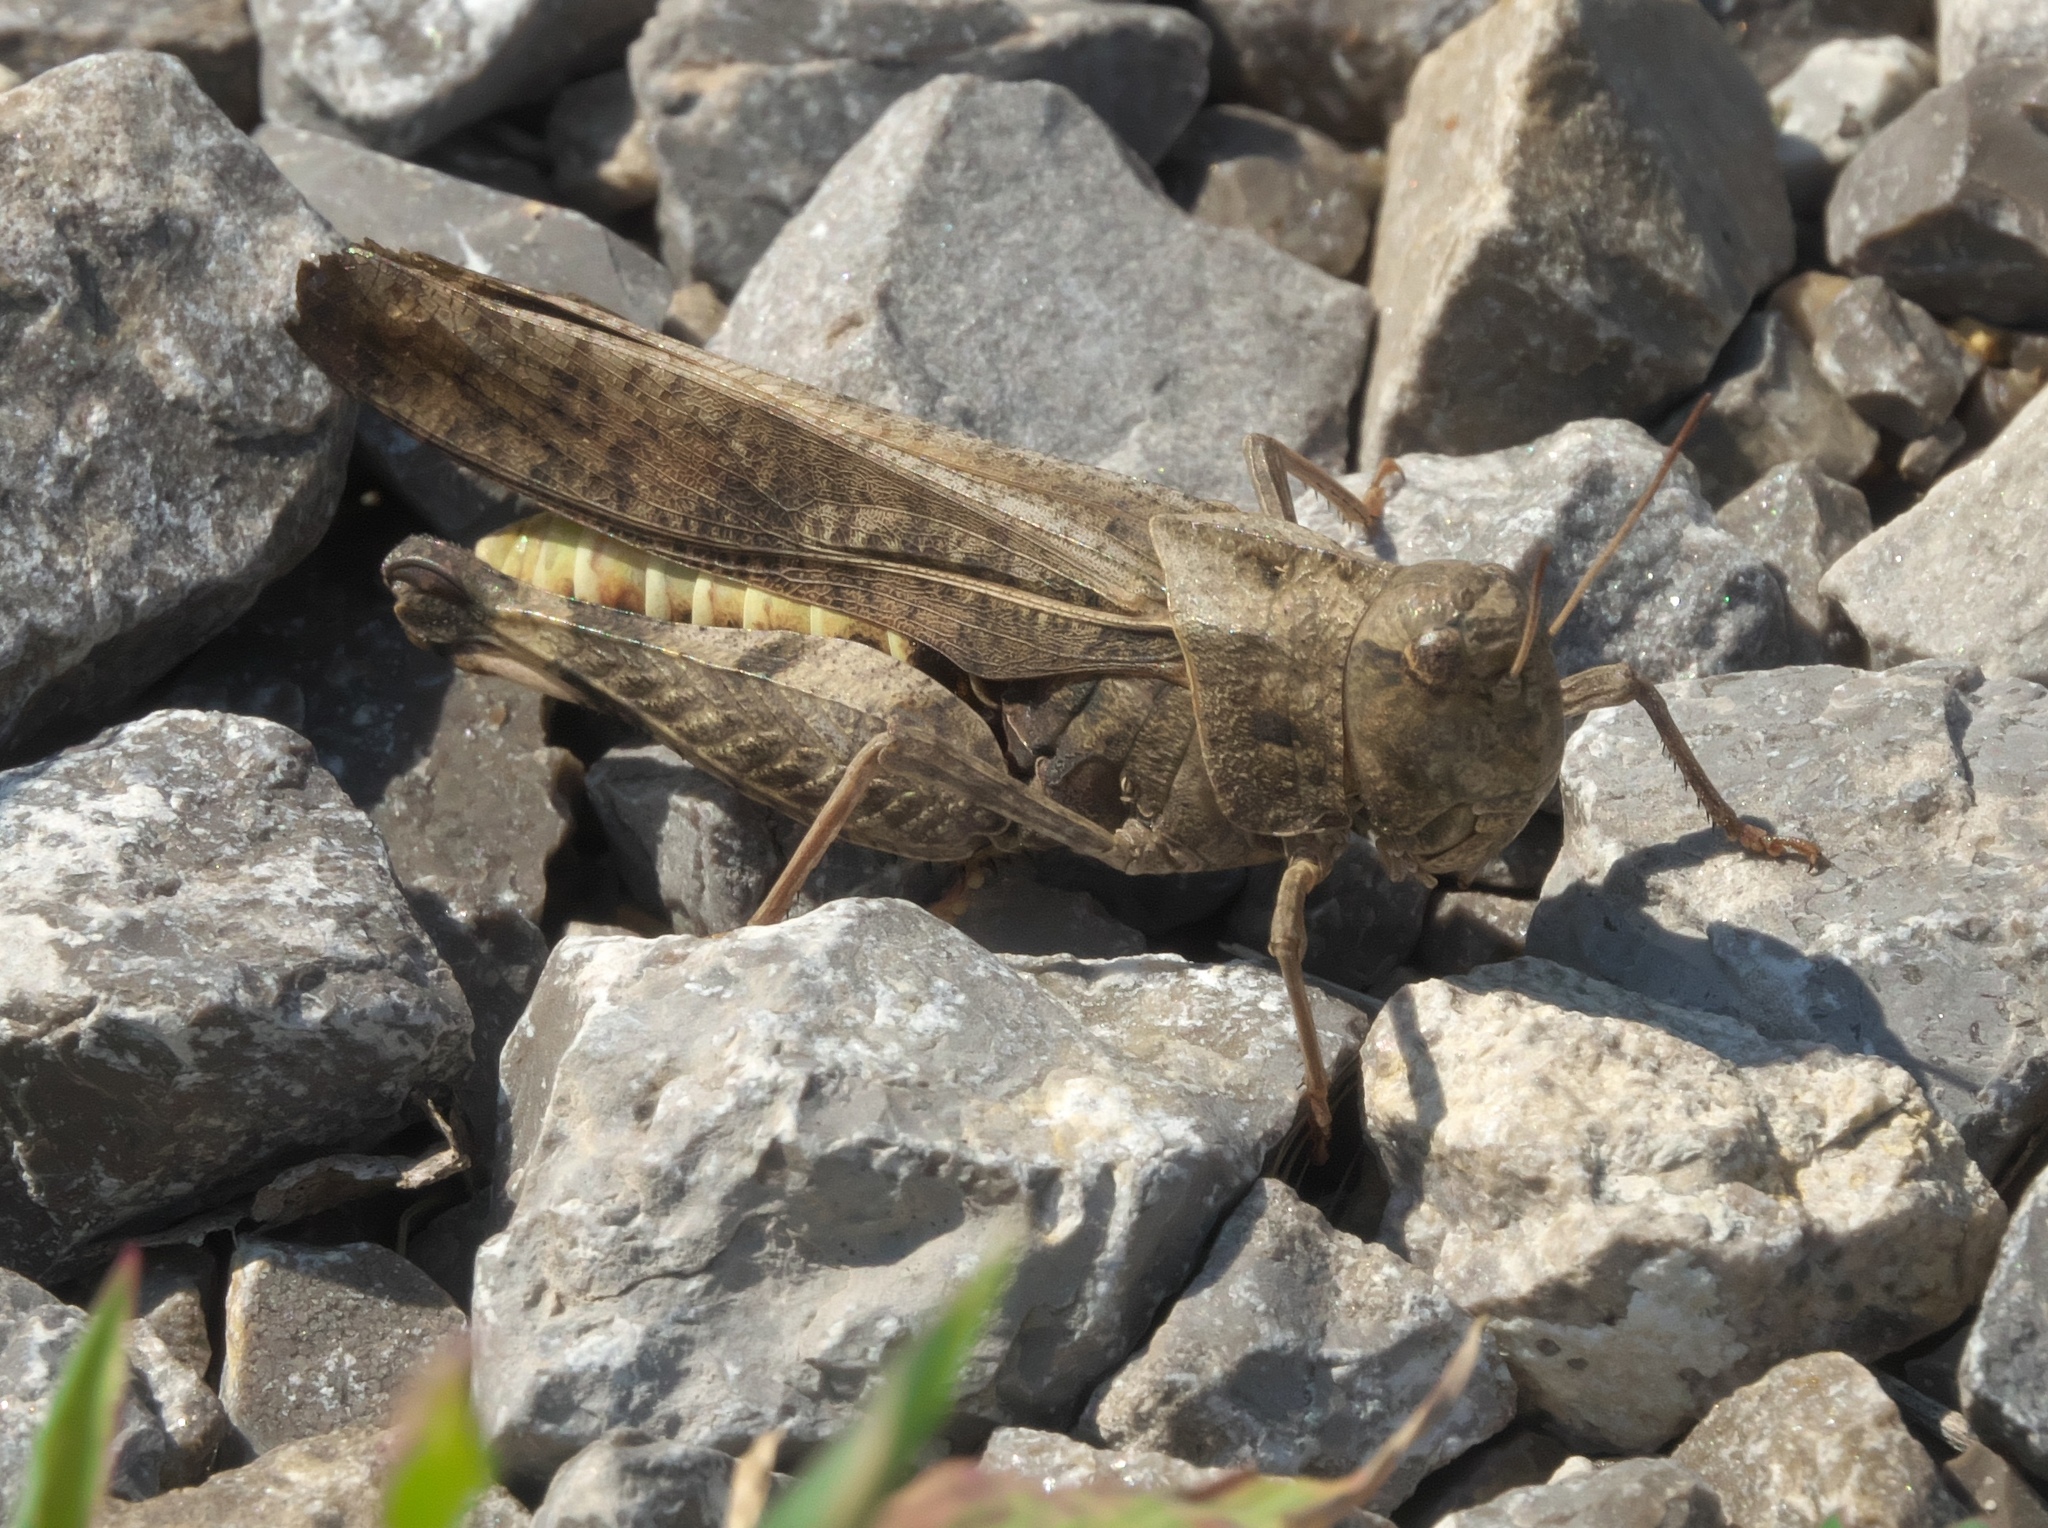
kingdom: Animalia
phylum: Arthropoda
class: Insecta
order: Orthoptera
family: Acrididae
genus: Arphia
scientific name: Arphia simplex
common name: Plains yellow-winged grasshopper
